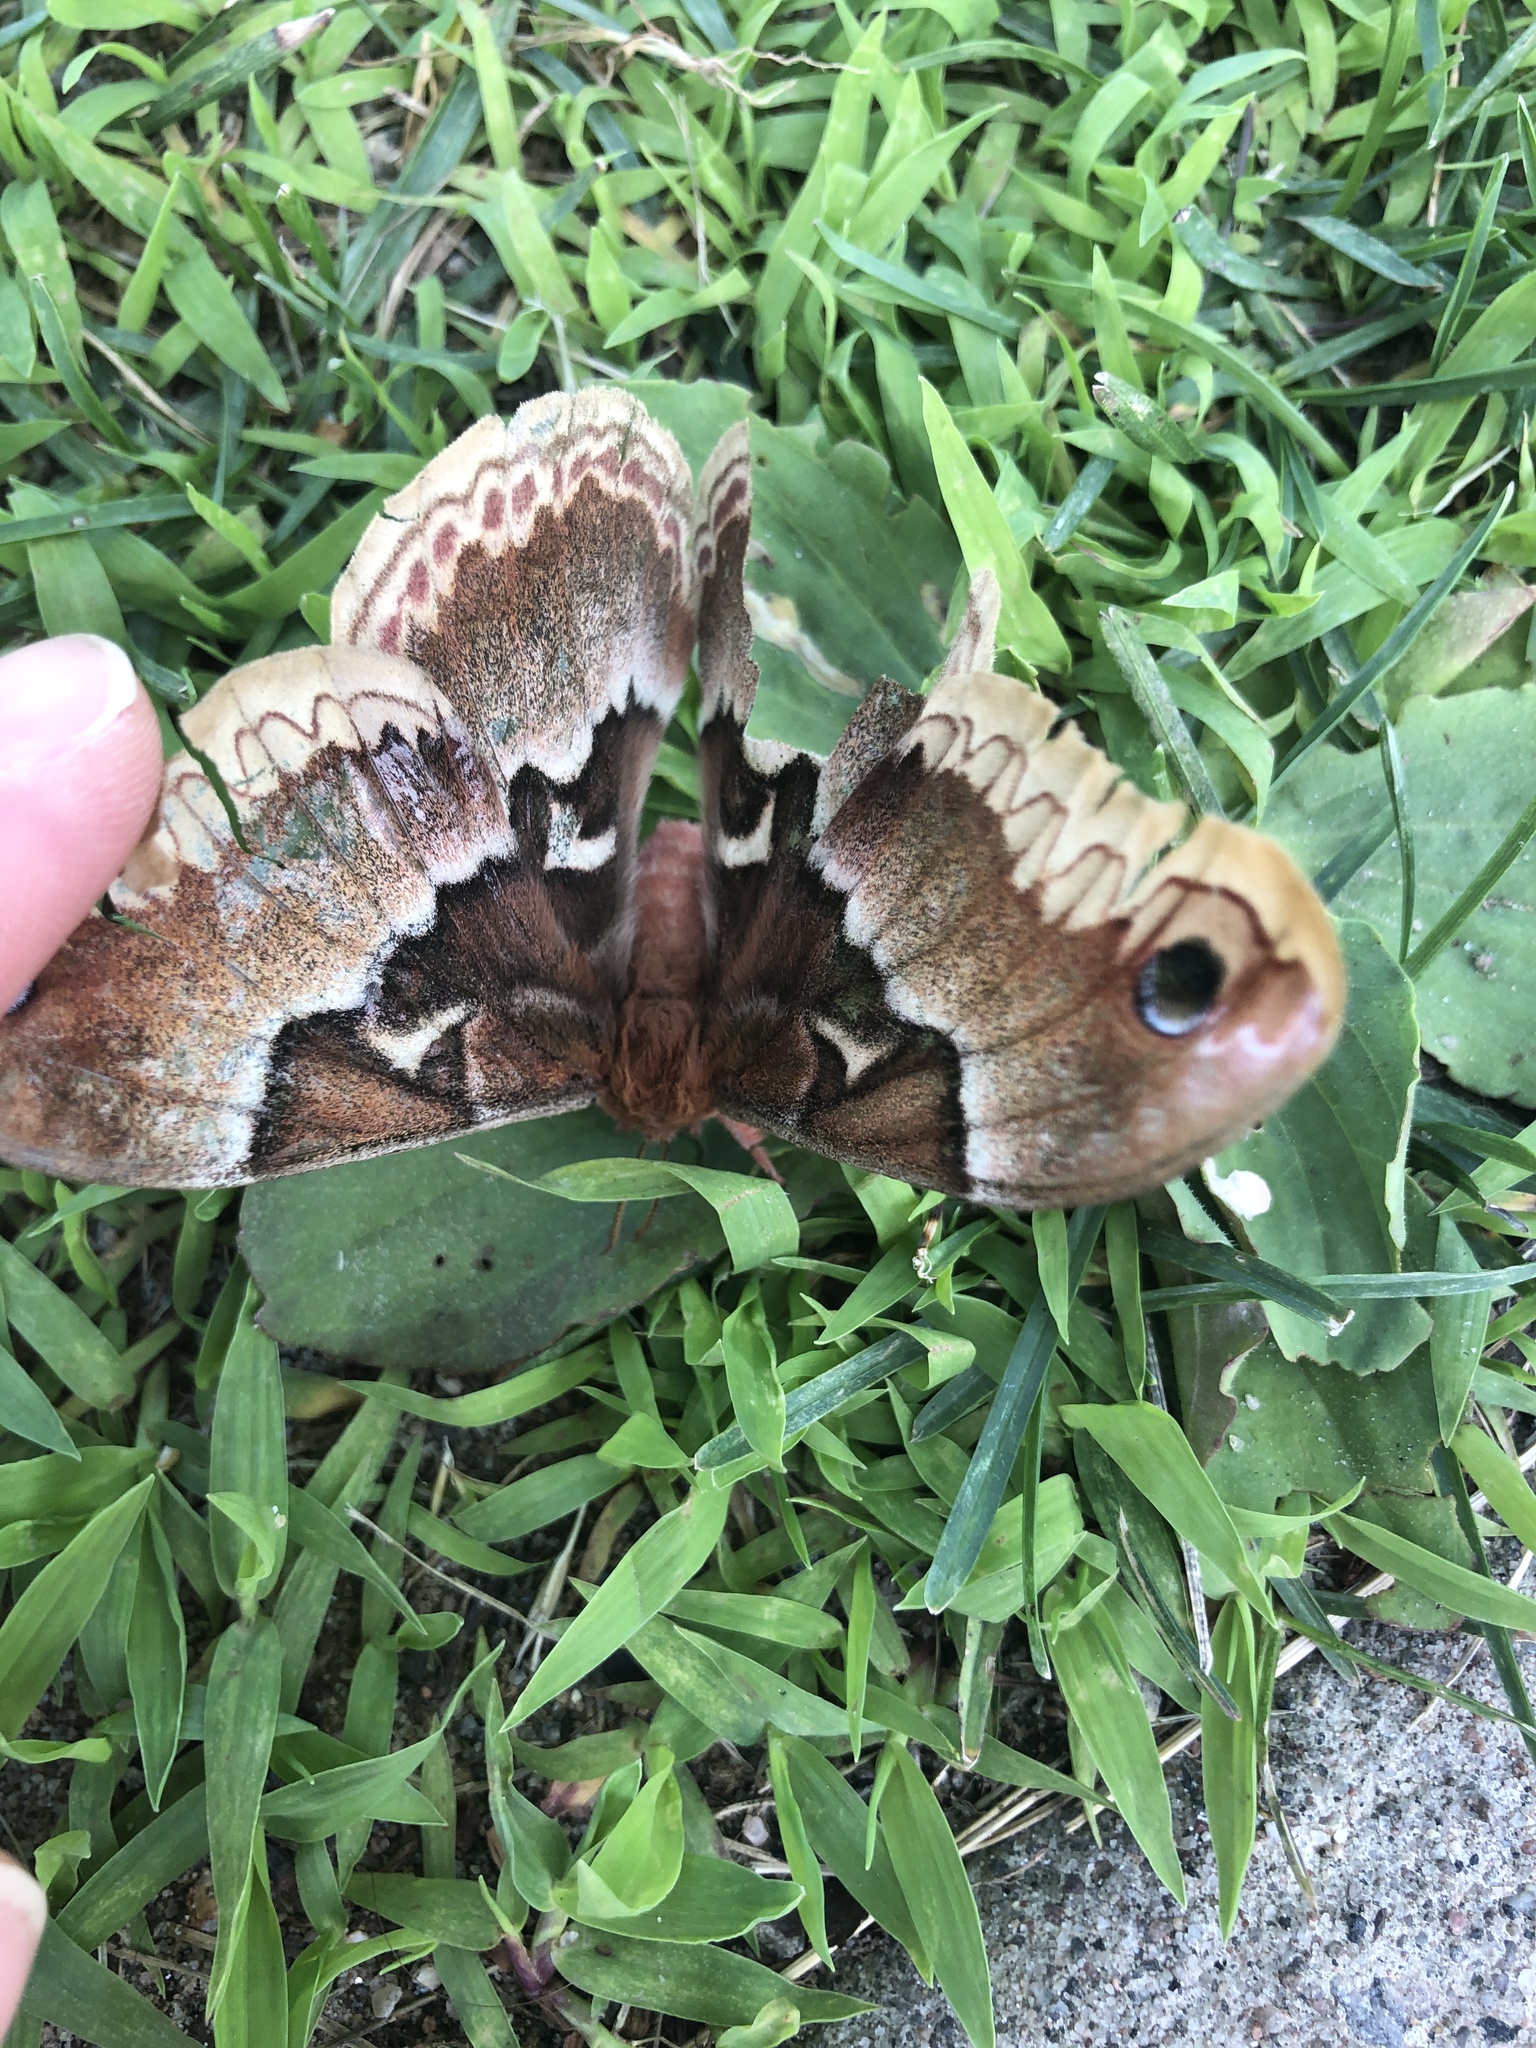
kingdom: Animalia
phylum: Arthropoda
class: Insecta
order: Lepidoptera
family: Saturniidae
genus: Callosamia
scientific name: Callosamia promethea
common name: Promethea silkmoth
